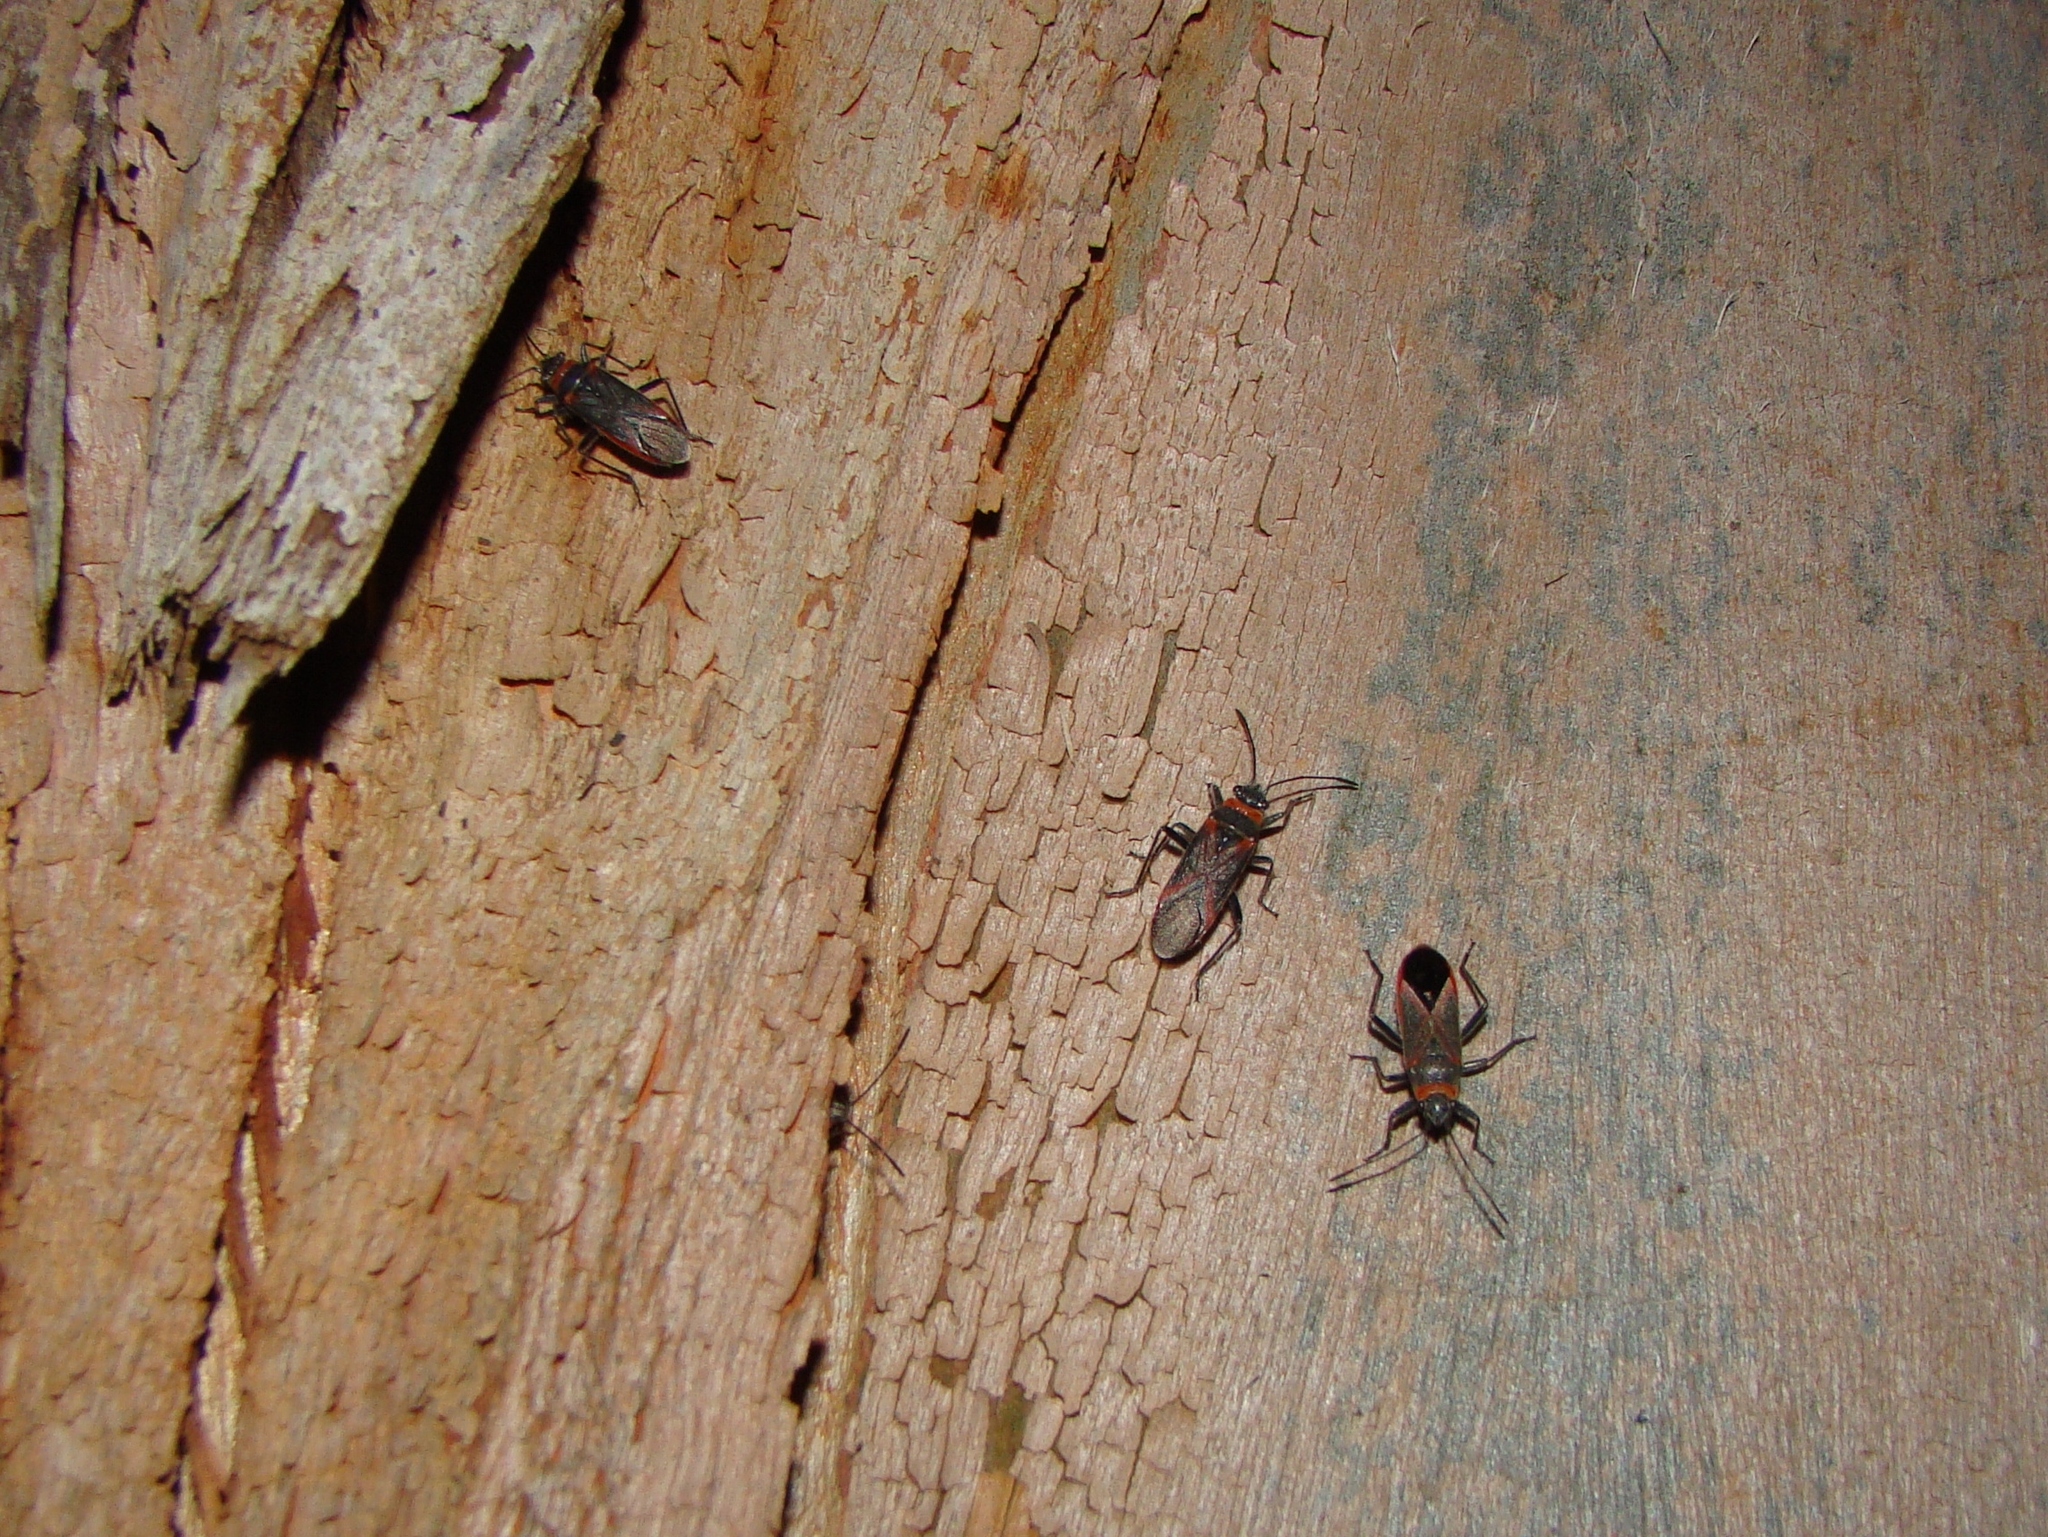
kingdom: Animalia
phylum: Arthropoda
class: Insecta
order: Hemiptera
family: Lygaeidae
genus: Arocatus
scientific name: Arocatus rusticus
